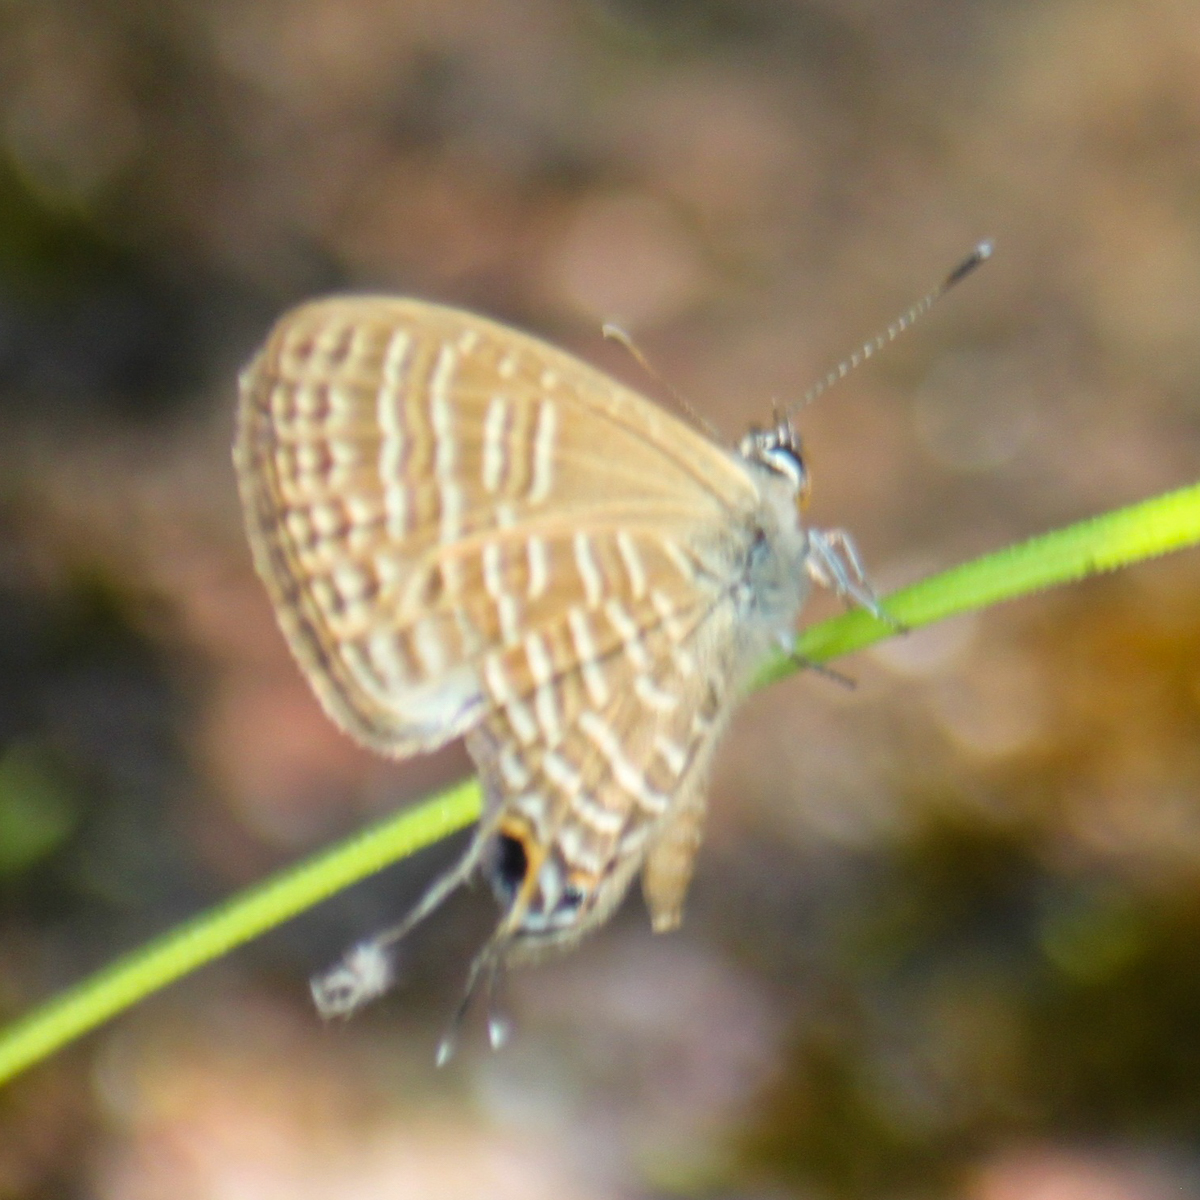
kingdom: Animalia
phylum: Arthropoda
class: Insecta
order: Lepidoptera
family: Lycaenidae
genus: Nacaduba
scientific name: Nacaduba pavana
